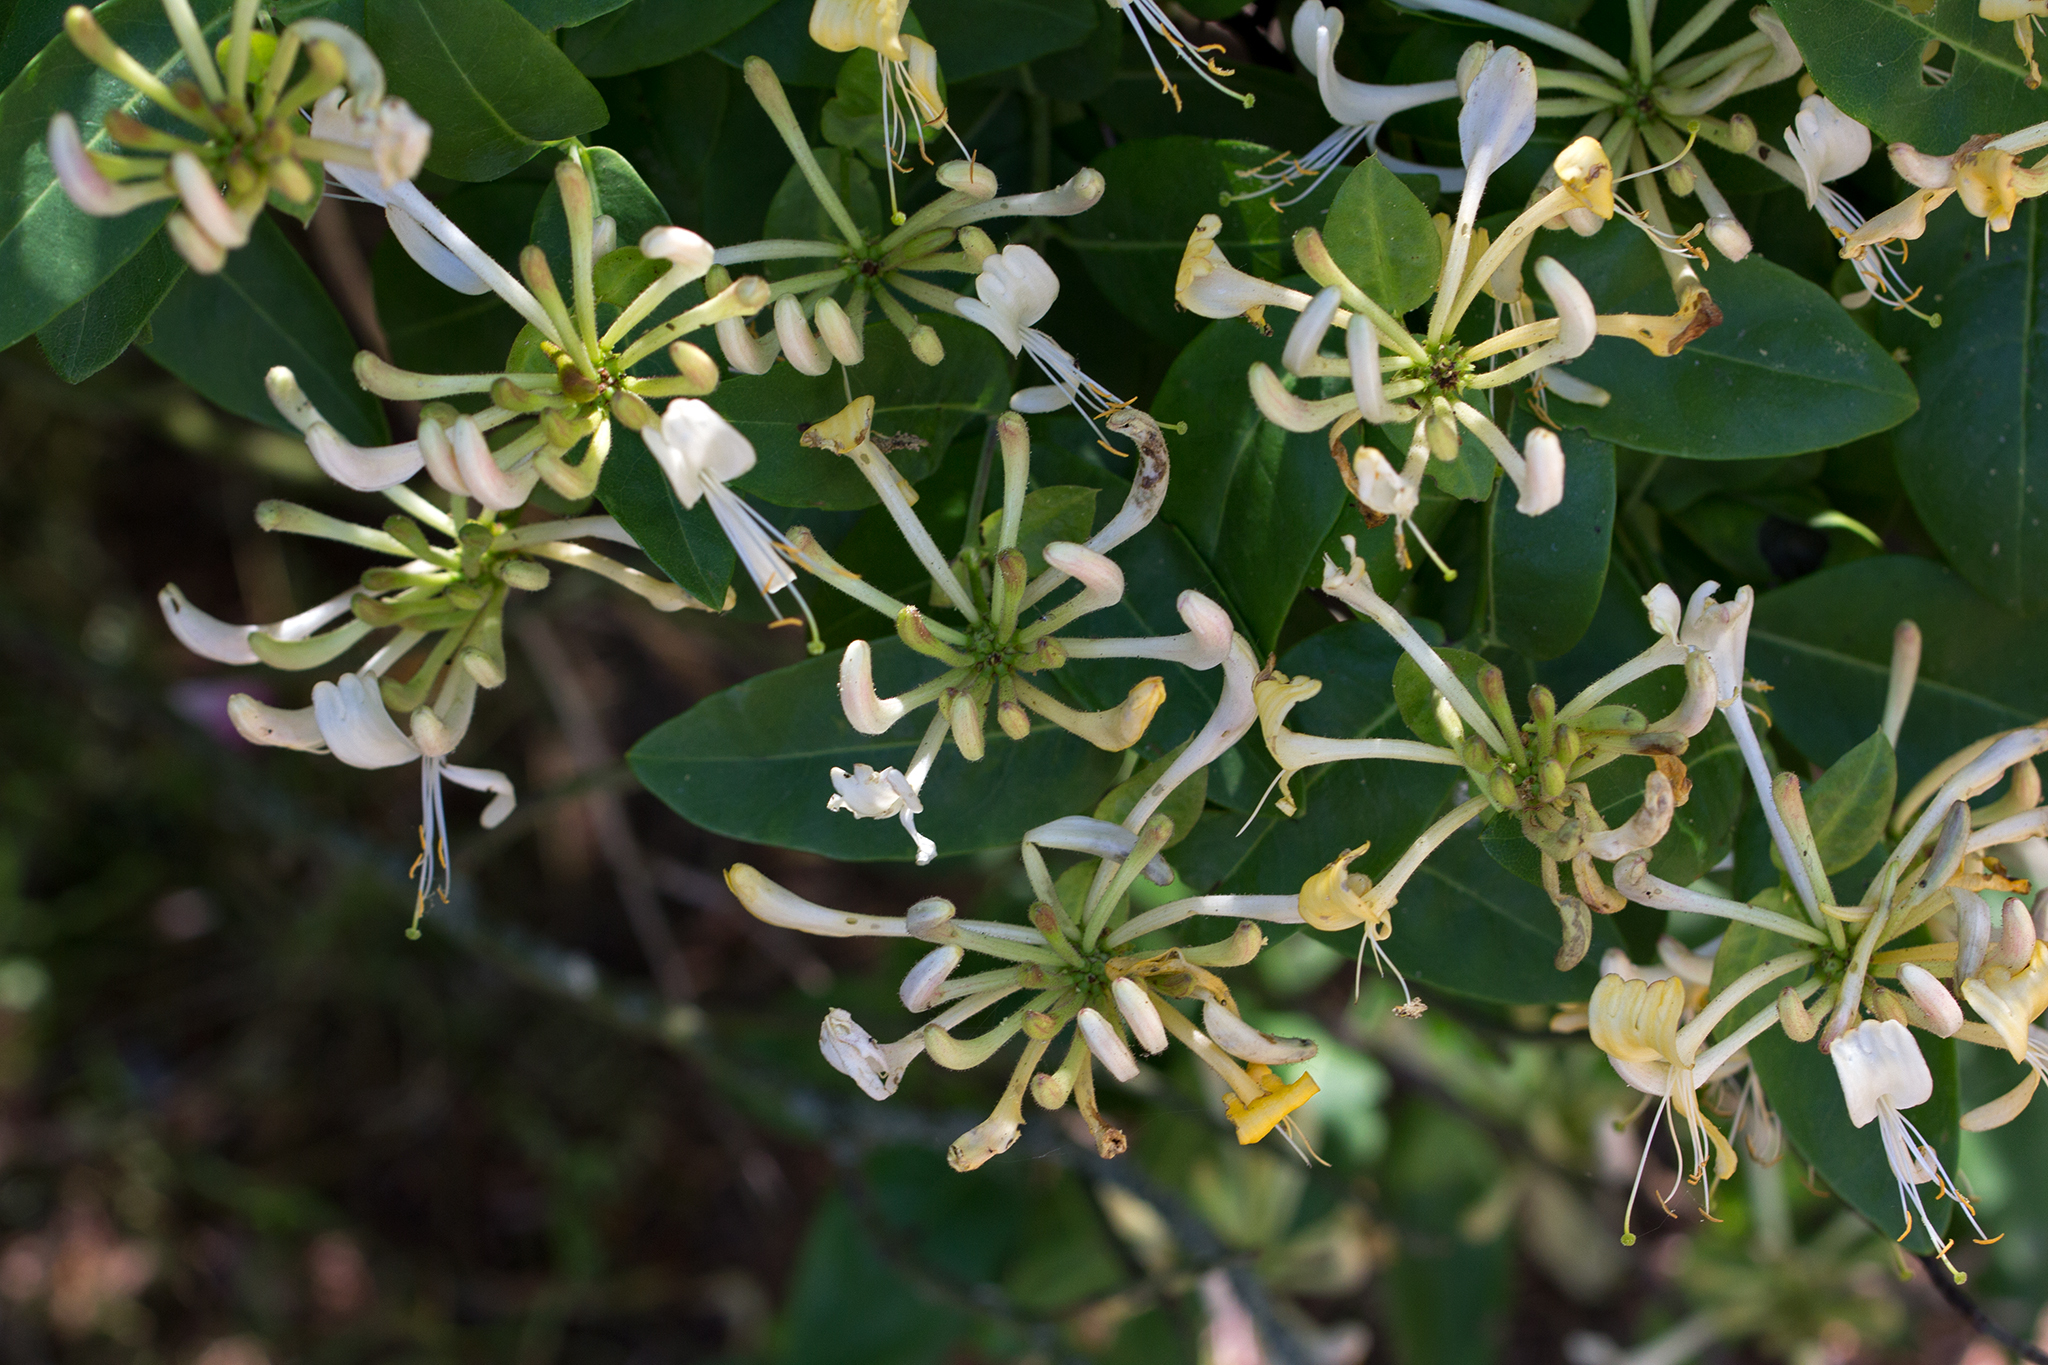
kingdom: Plantae
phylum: Tracheophyta
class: Magnoliopsida
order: Dipsacales
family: Caprifoliaceae
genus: Lonicera
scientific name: Lonicera periclymenum
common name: European honeysuckle
